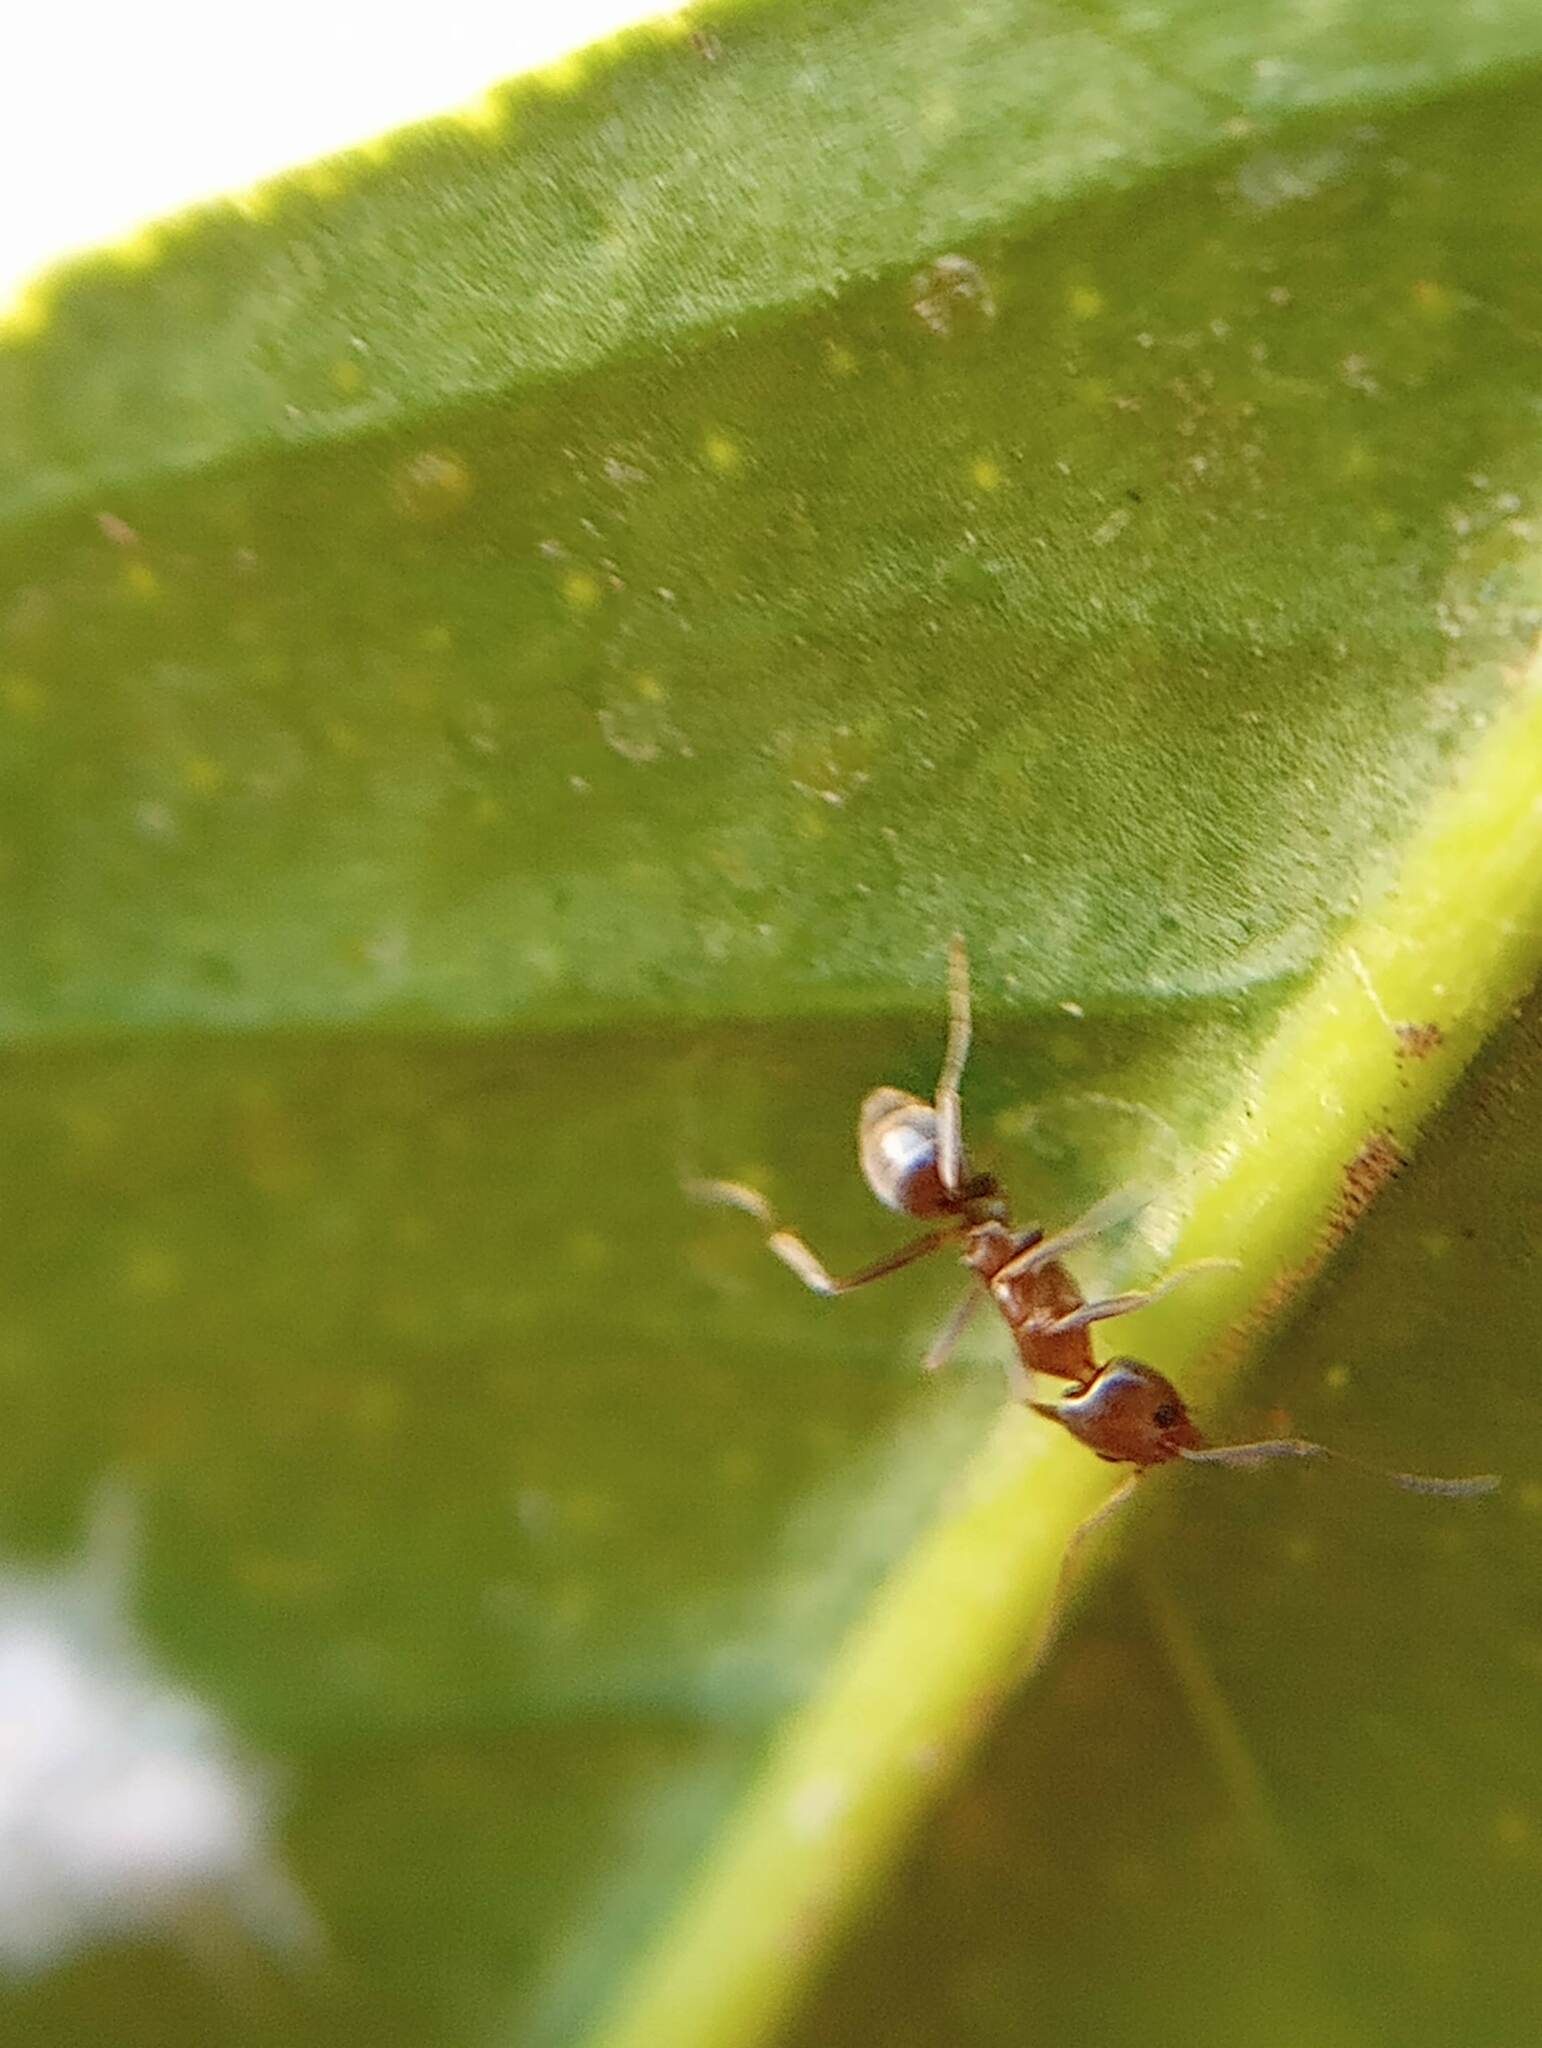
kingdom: Animalia
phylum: Arthropoda
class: Insecta
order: Hymenoptera
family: Formicidae
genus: Linepithema
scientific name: Linepithema humile
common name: Argentine ant
